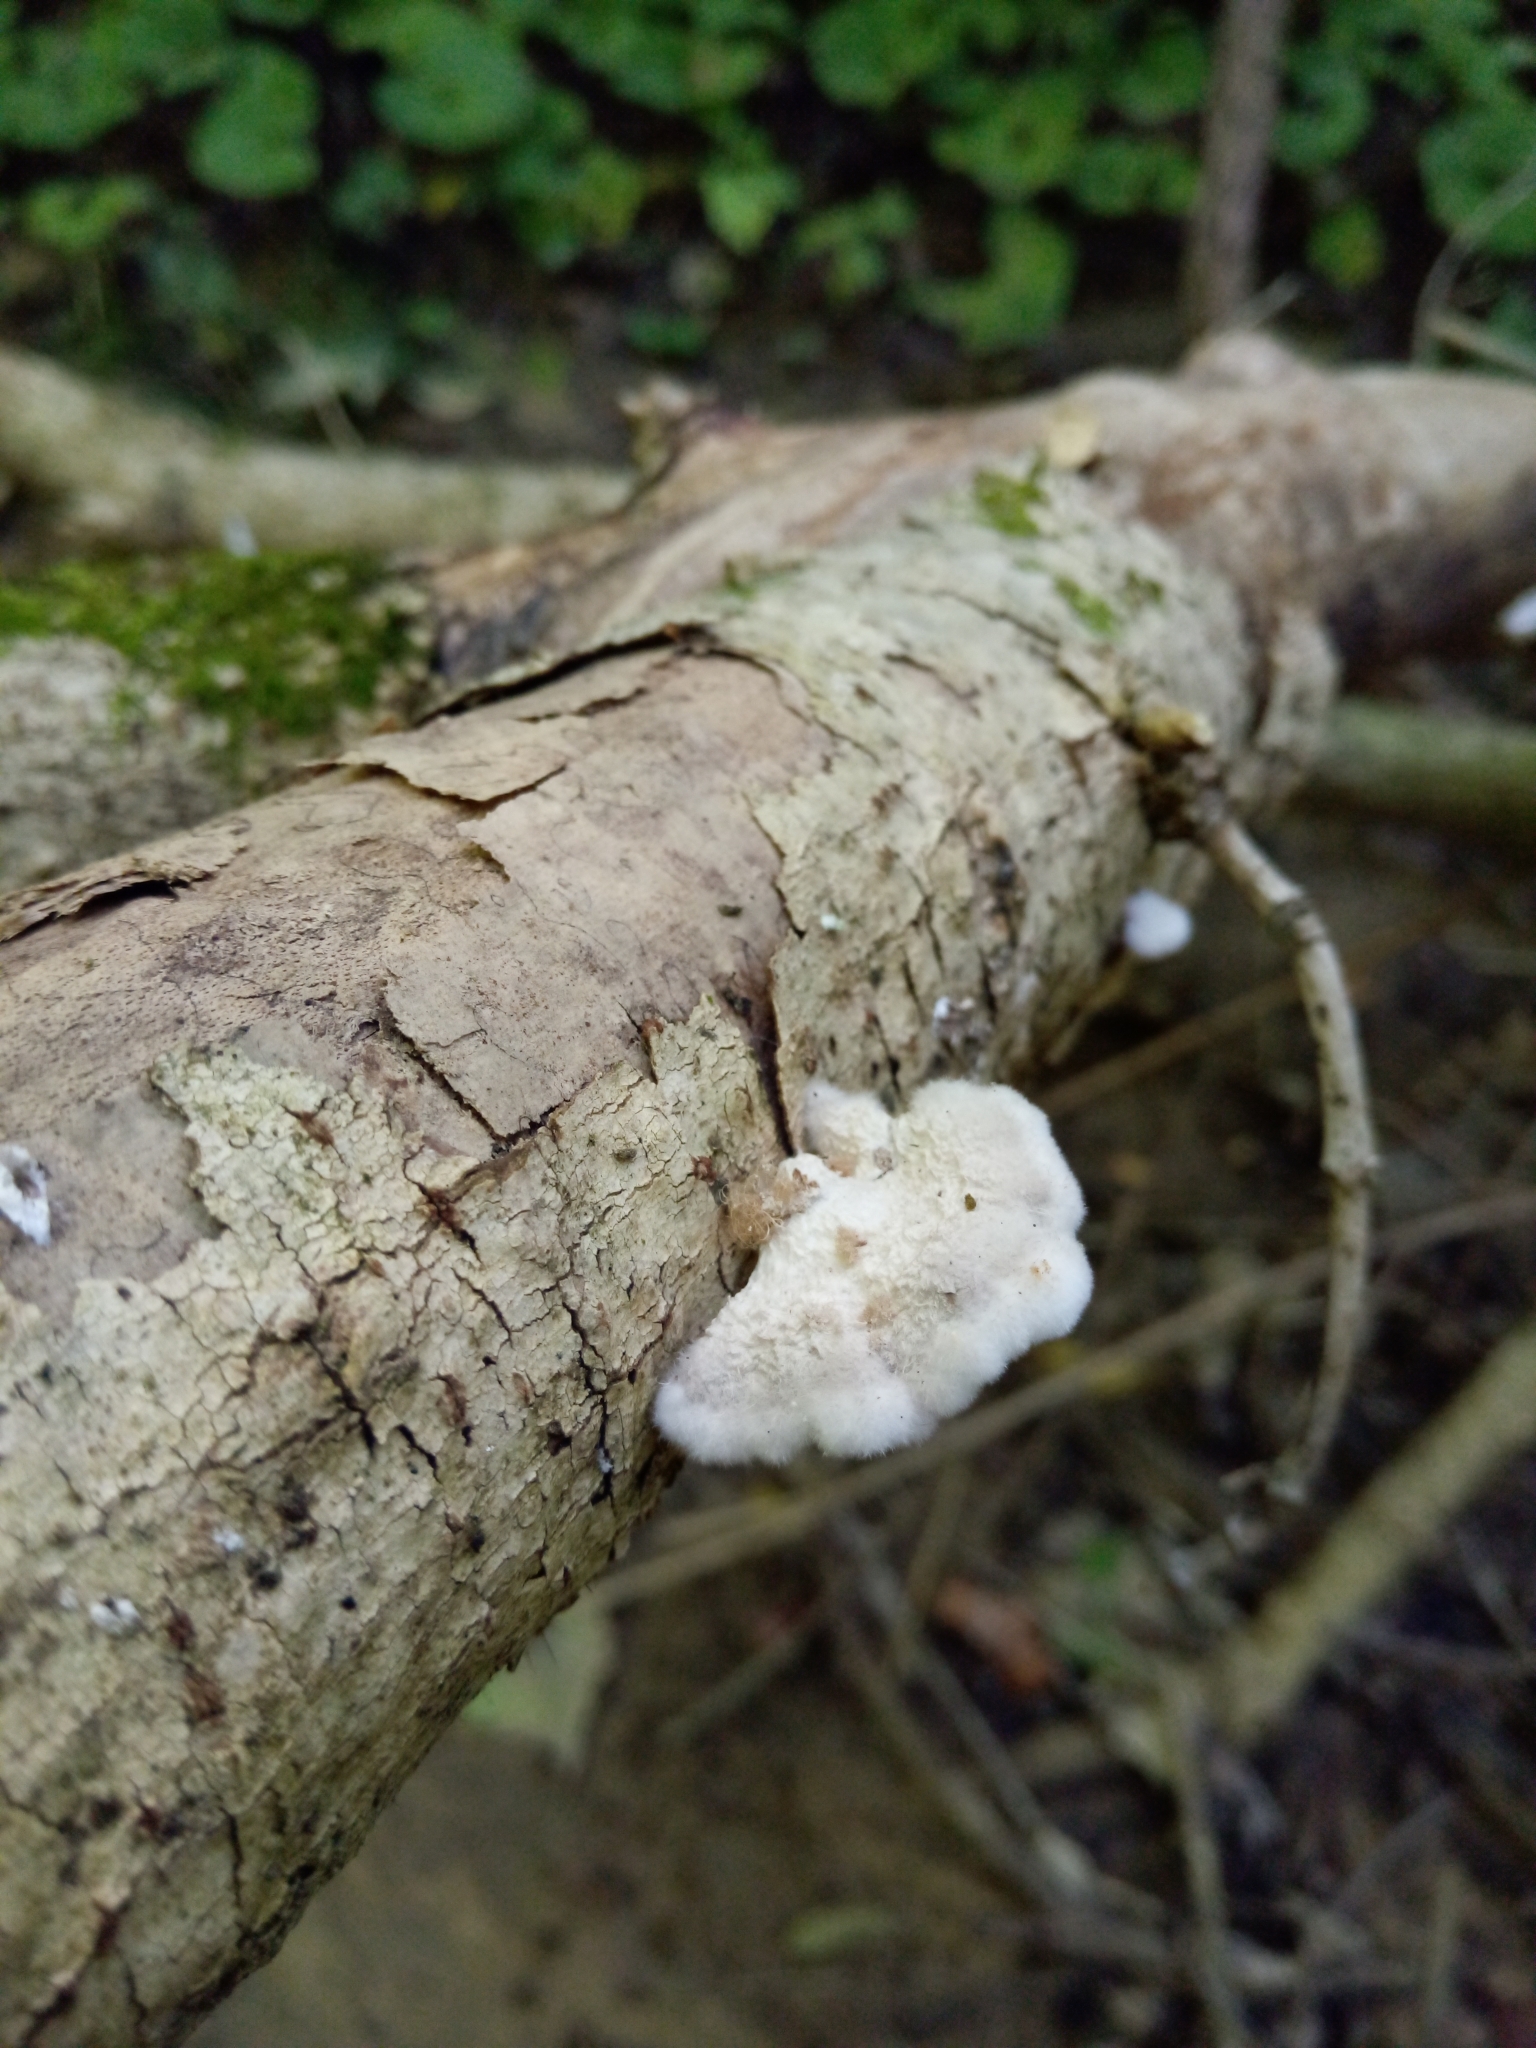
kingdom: Fungi
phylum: Basidiomycota
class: Agaricomycetes
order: Agaricales
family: Schizophyllaceae
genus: Schizophyllum
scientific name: Schizophyllum commune
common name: Common porecrust
